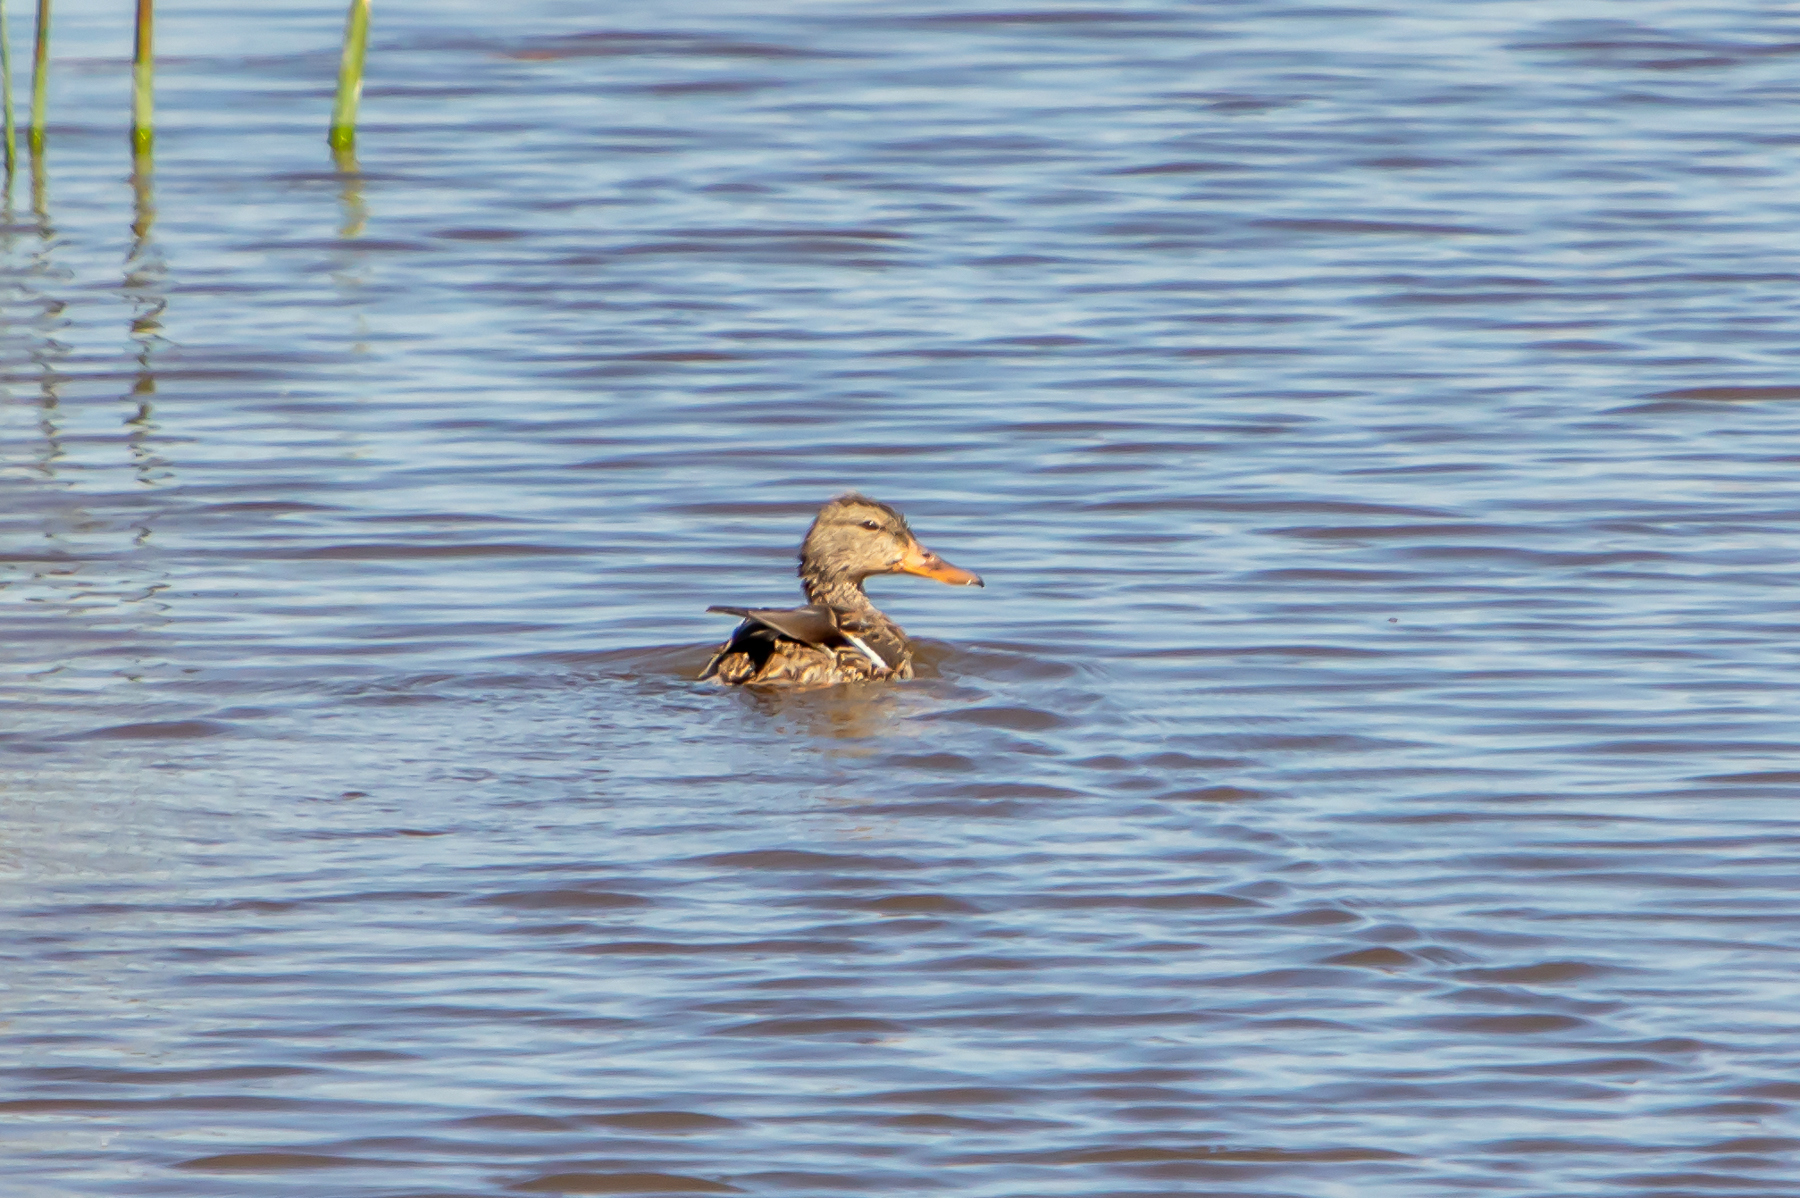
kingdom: Animalia
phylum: Chordata
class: Aves
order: Anseriformes
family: Anatidae
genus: Spatula
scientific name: Spatula clypeata
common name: Northern shoveler
